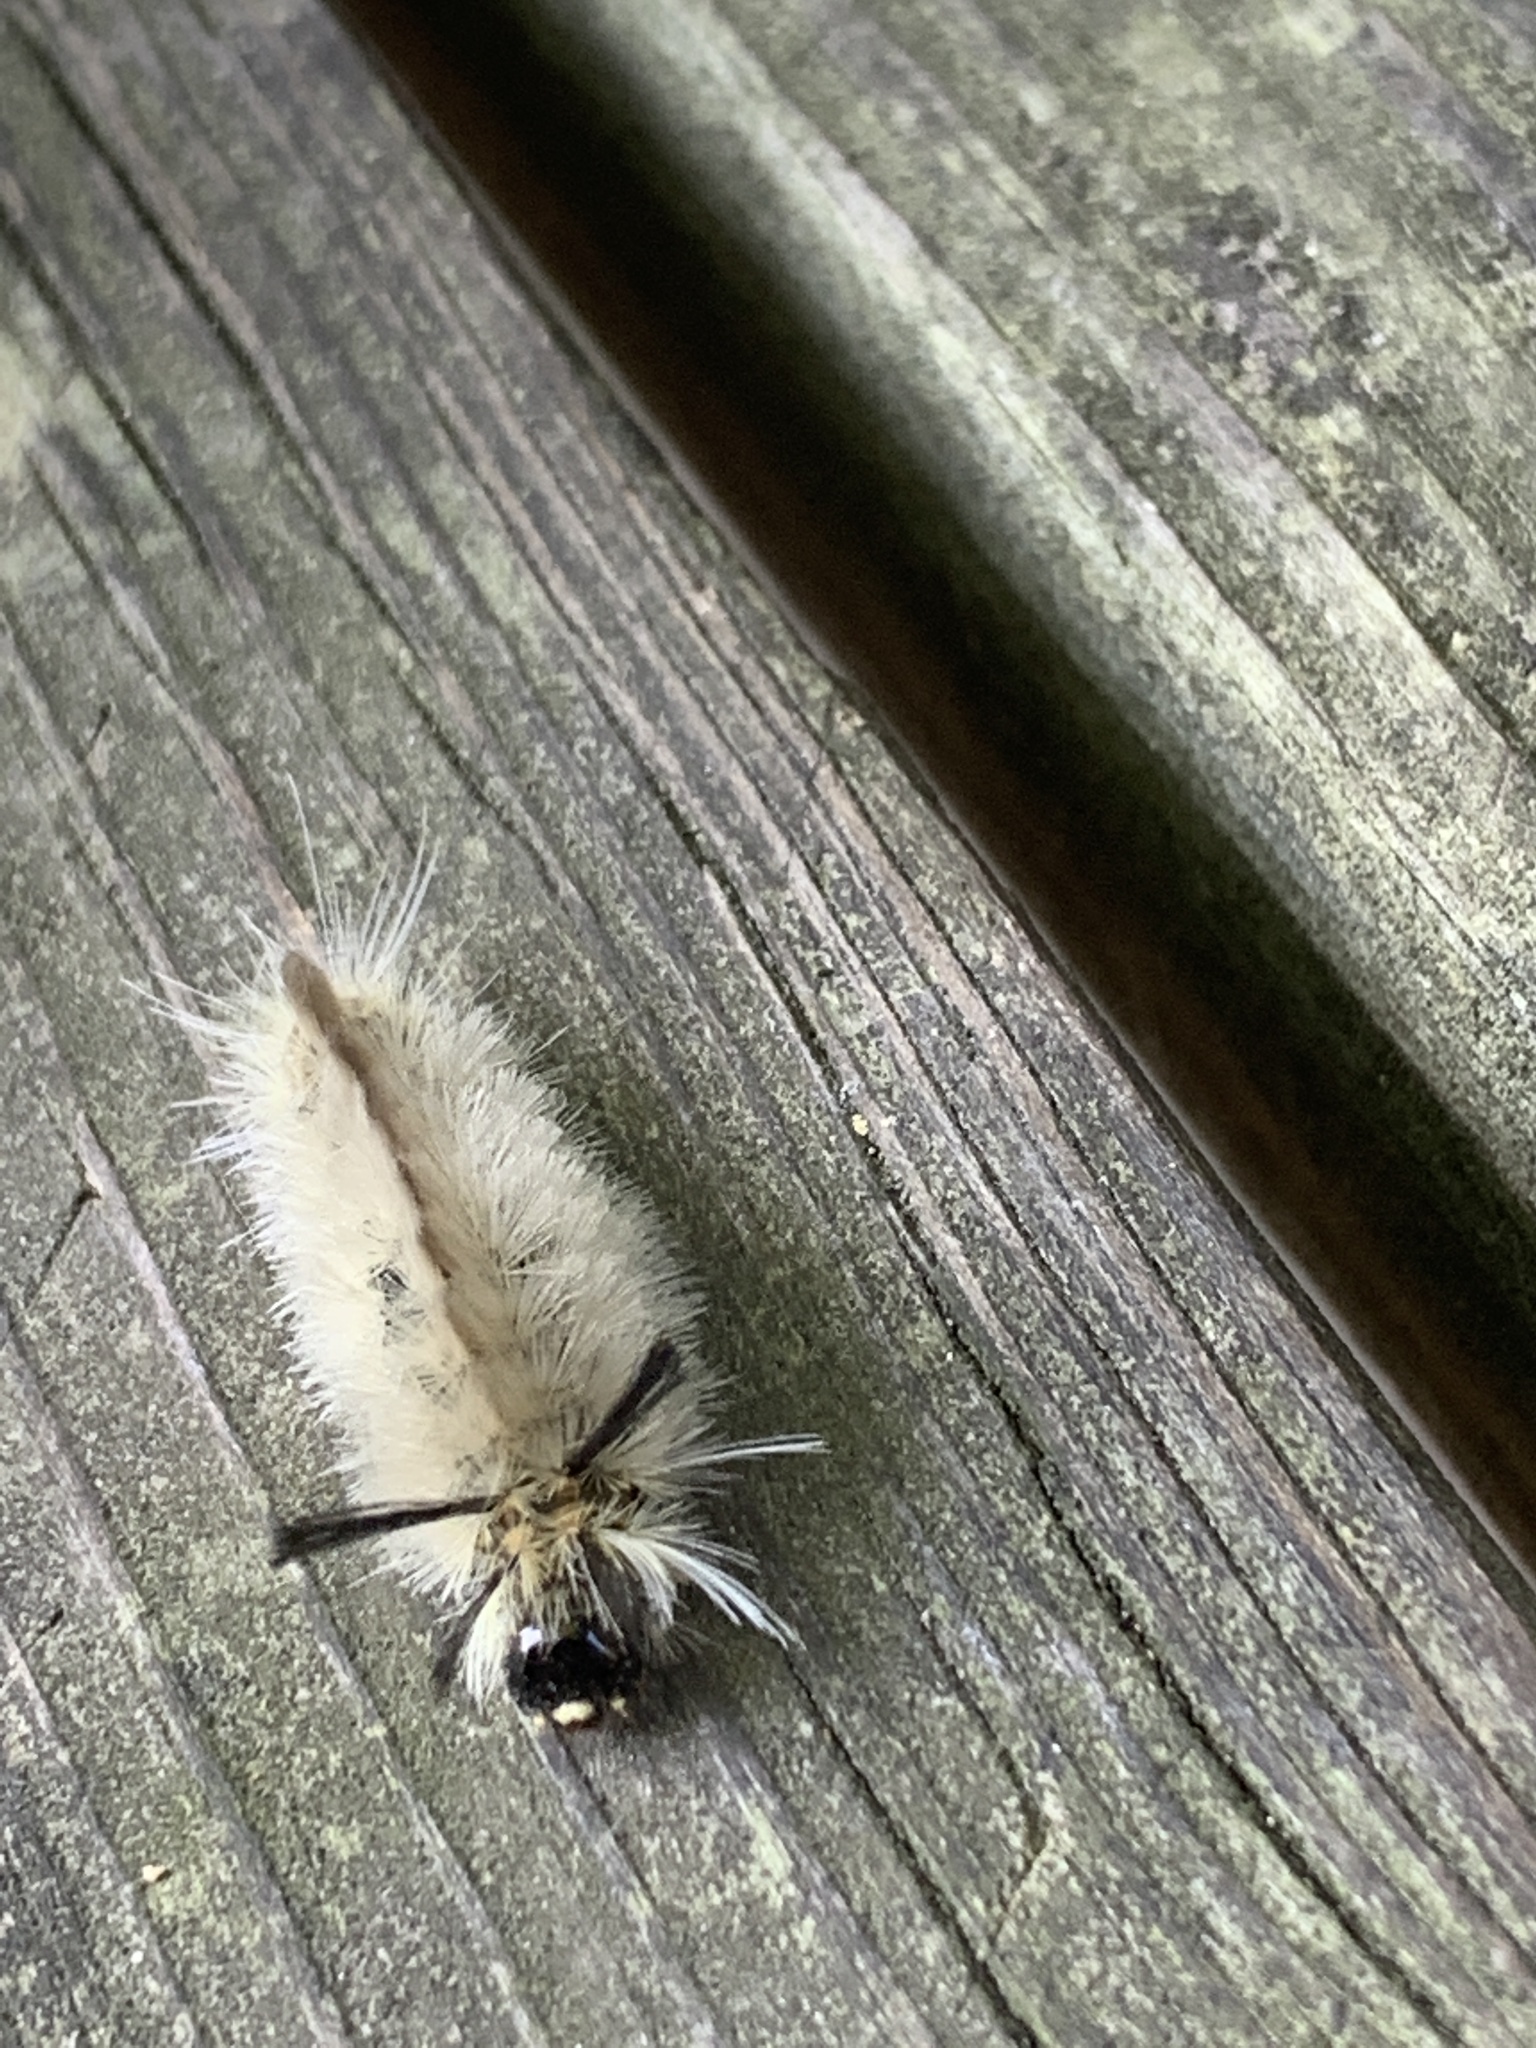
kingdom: Animalia
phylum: Arthropoda
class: Insecta
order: Lepidoptera
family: Erebidae
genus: Halysidota
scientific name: Halysidota tessellaris
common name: Banded tussock moth
